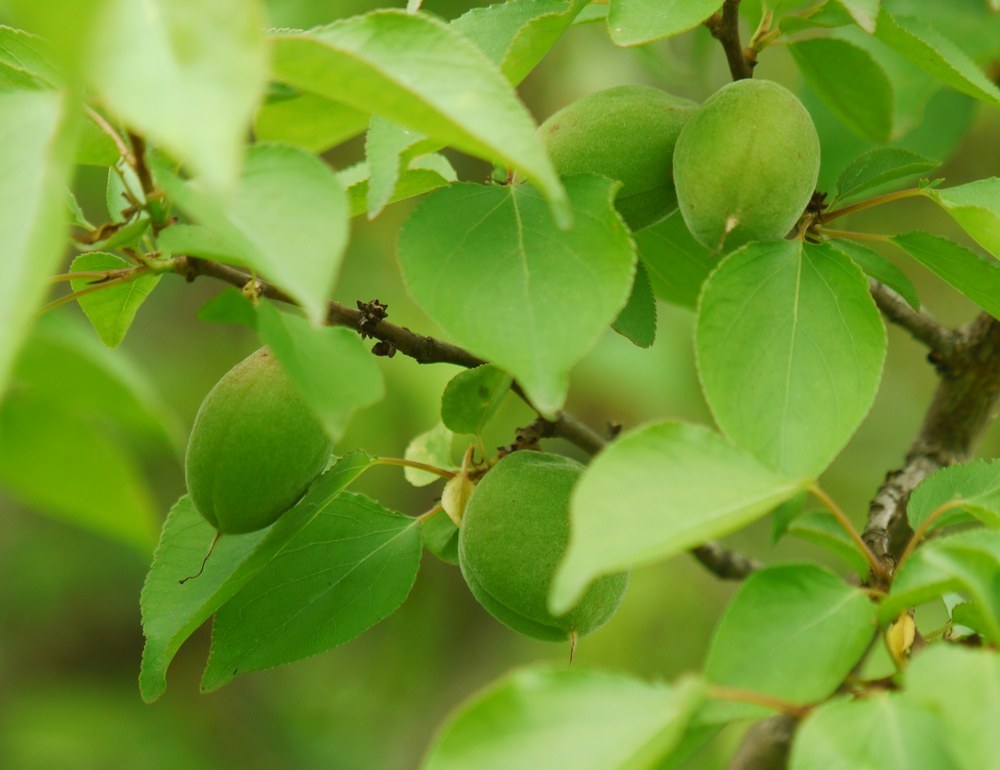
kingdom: Plantae
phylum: Tracheophyta
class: Magnoliopsida
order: Rosales
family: Rosaceae
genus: Prunus
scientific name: Prunus armeniaca
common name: Apricot
